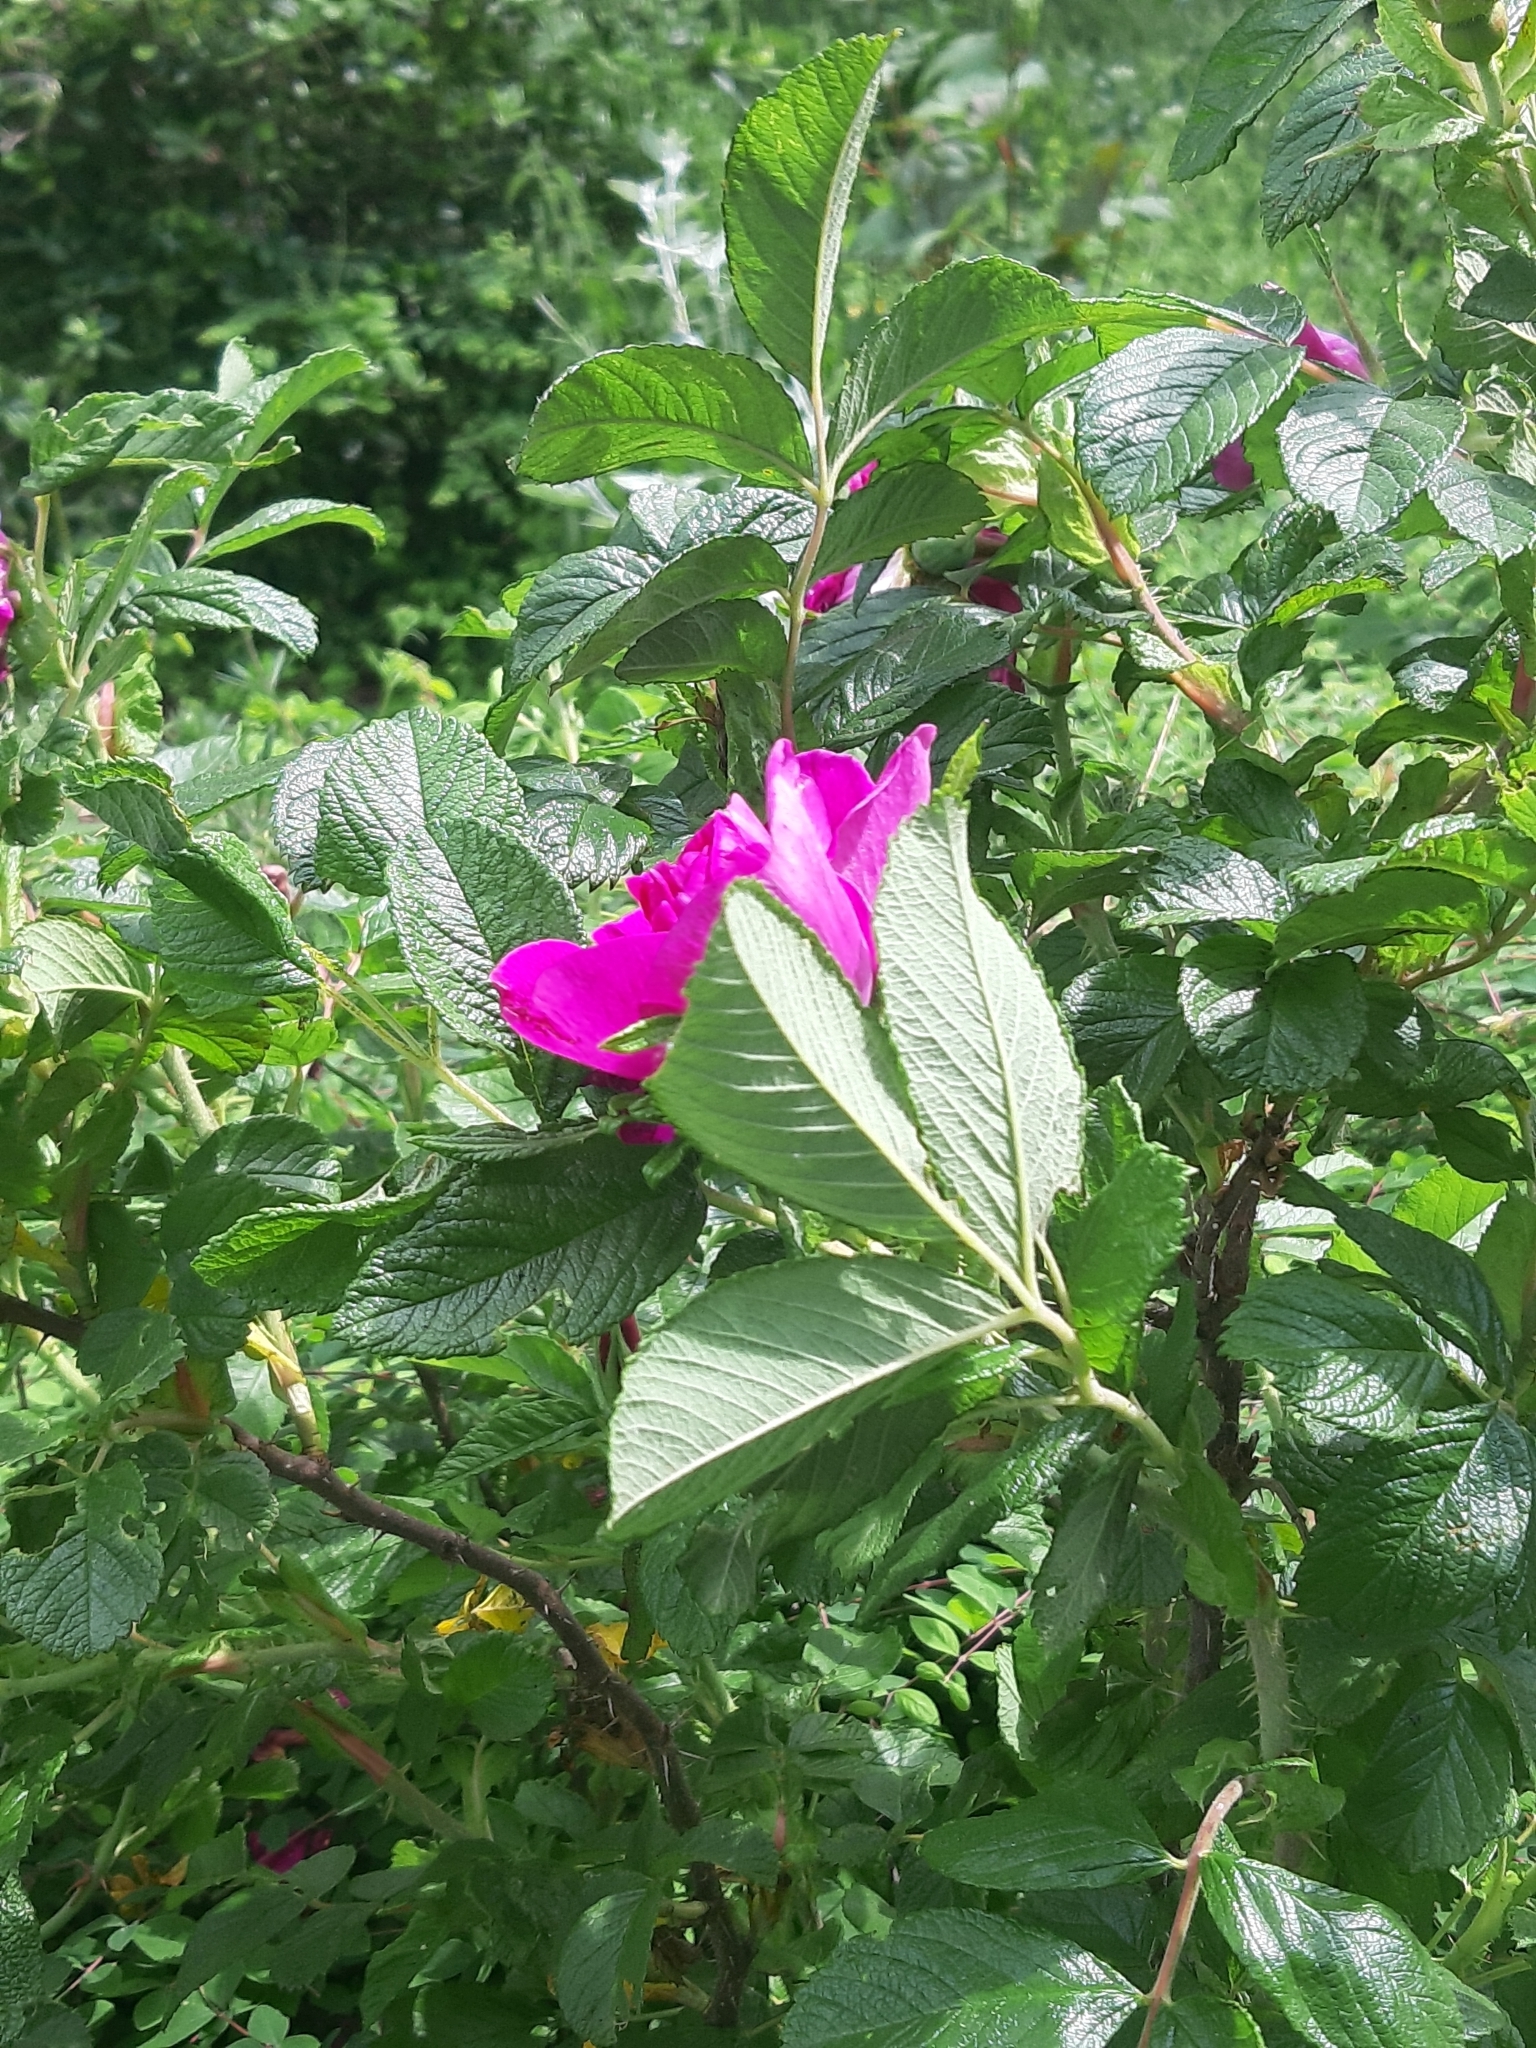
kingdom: Plantae
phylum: Tracheophyta
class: Magnoliopsida
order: Rosales
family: Rosaceae
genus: Rosa
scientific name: Rosa rugosa
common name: Japanese rose
